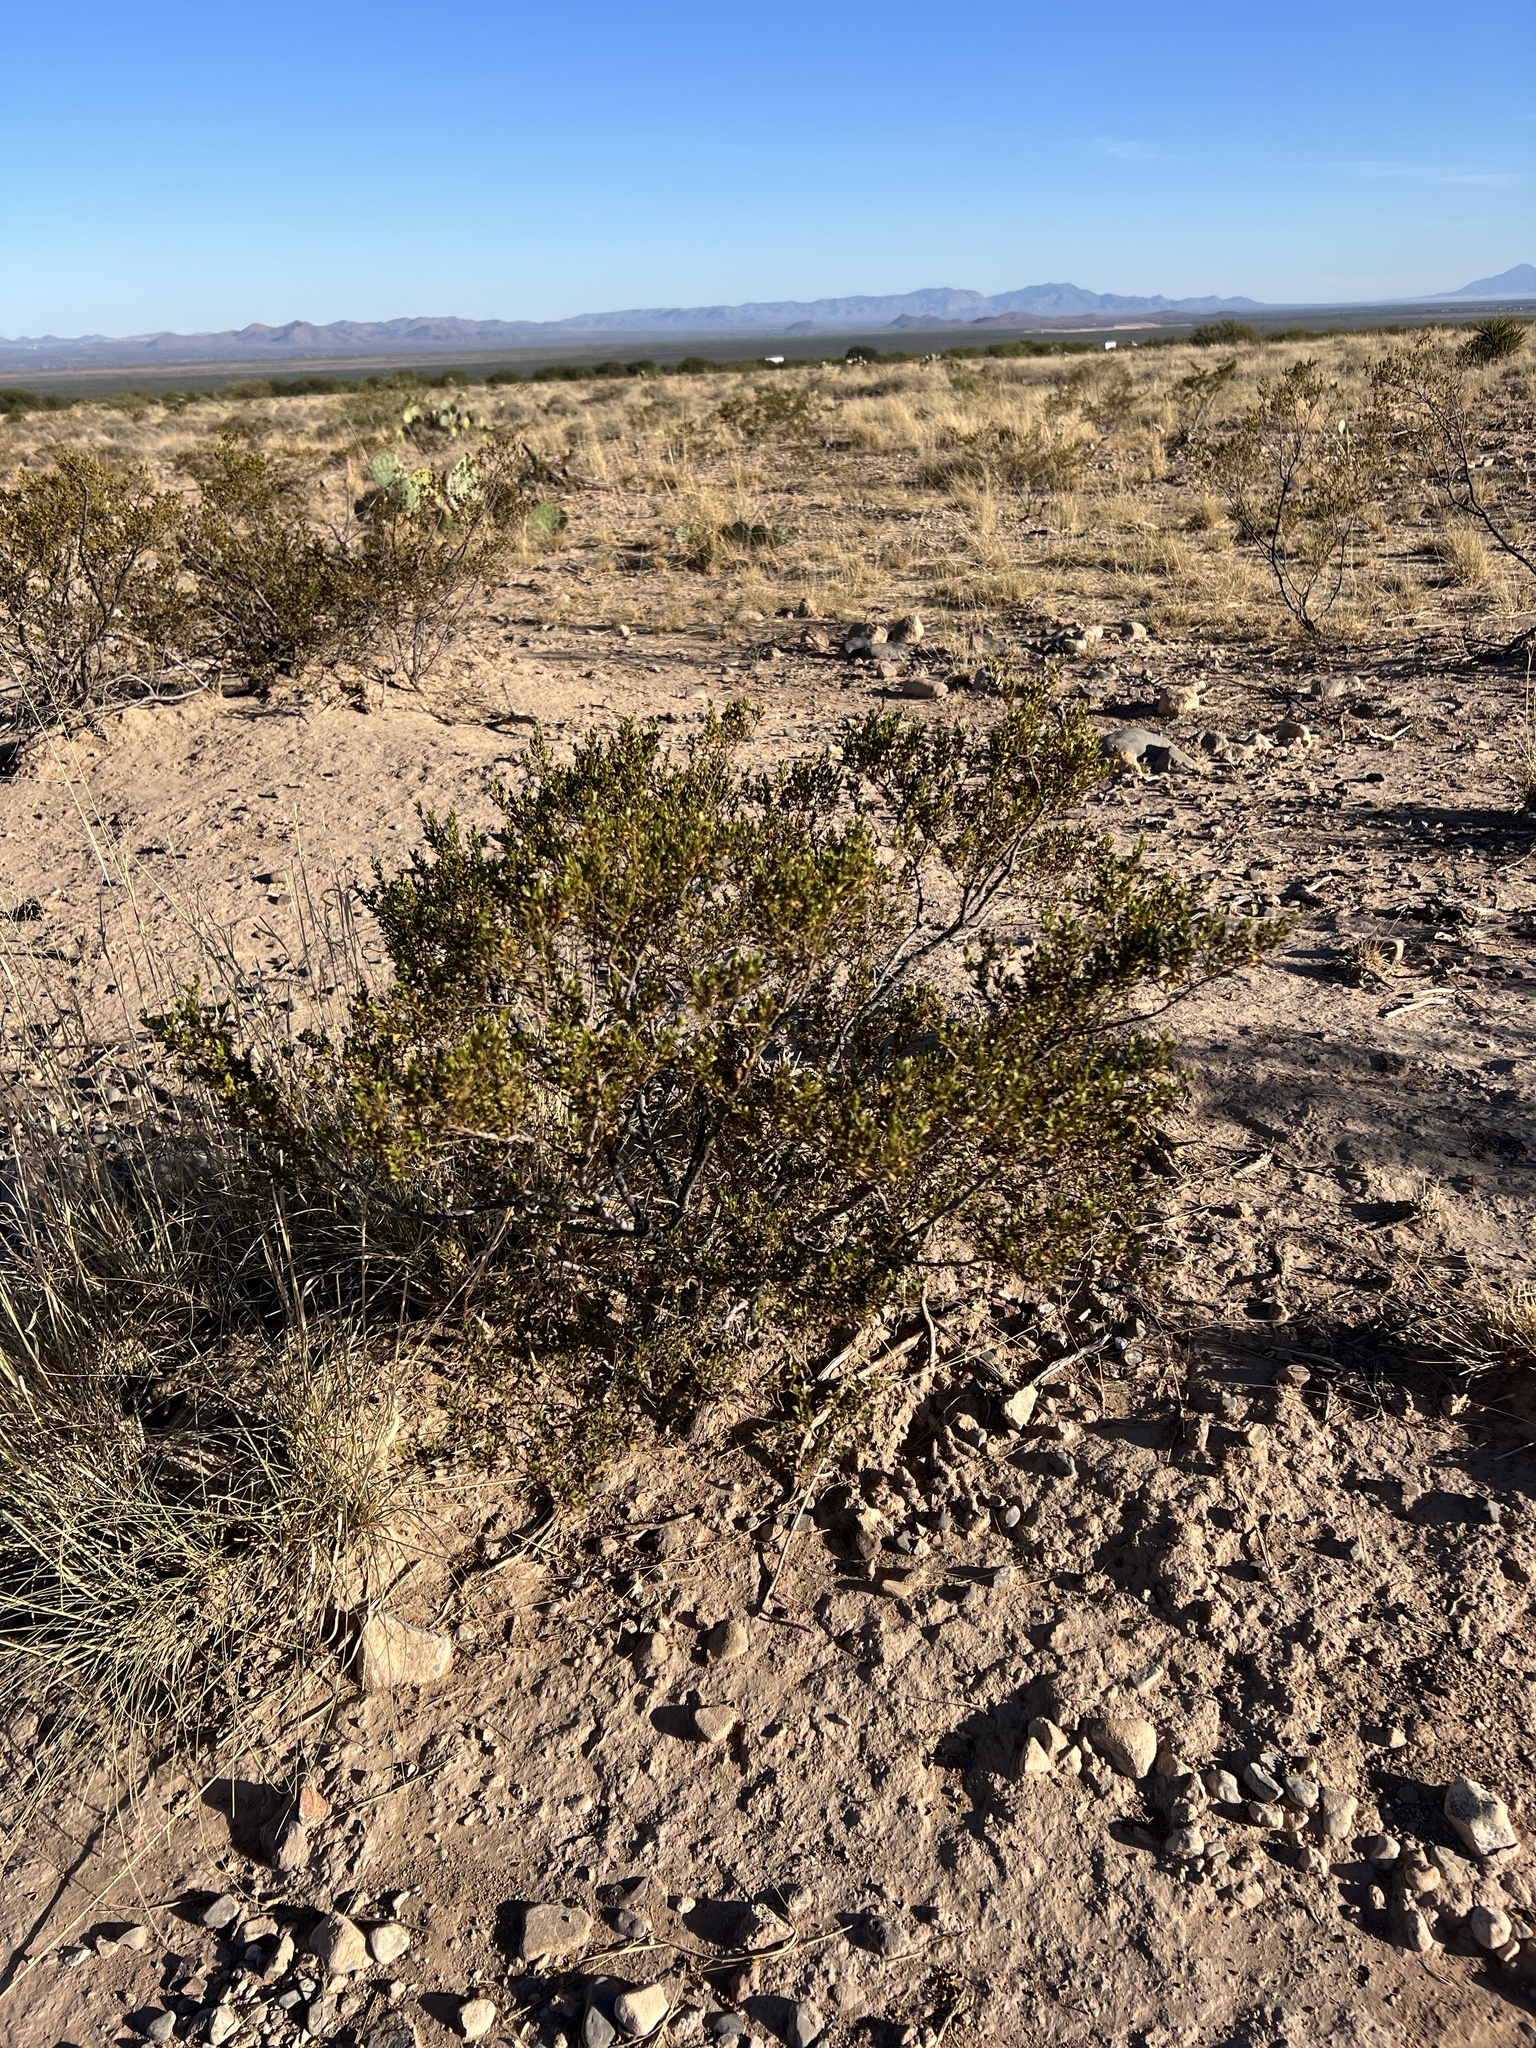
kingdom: Plantae
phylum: Tracheophyta
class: Magnoliopsida
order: Zygophyllales
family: Zygophyllaceae
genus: Larrea
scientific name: Larrea tridentata
